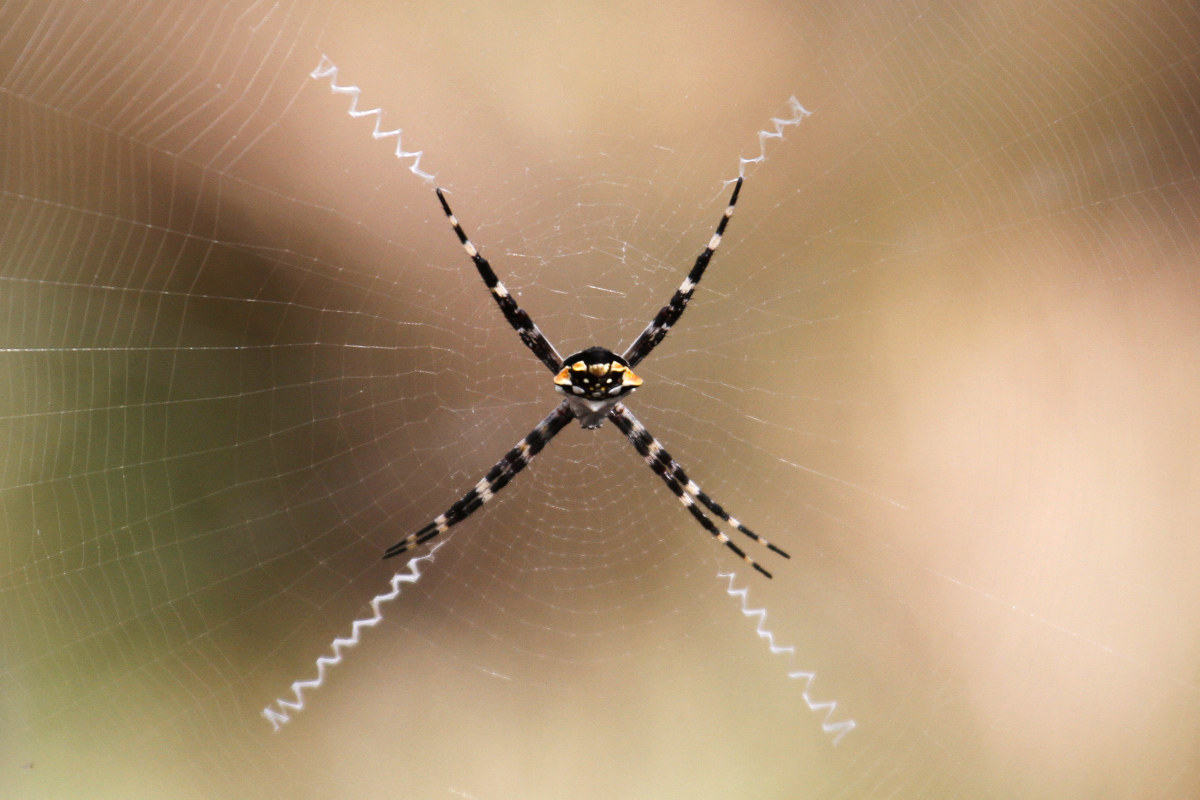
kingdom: Animalia
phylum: Arthropoda
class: Arachnida
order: Araneae
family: Araneidae
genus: Argiope
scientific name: Argiope argentata
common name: Orb weavers
